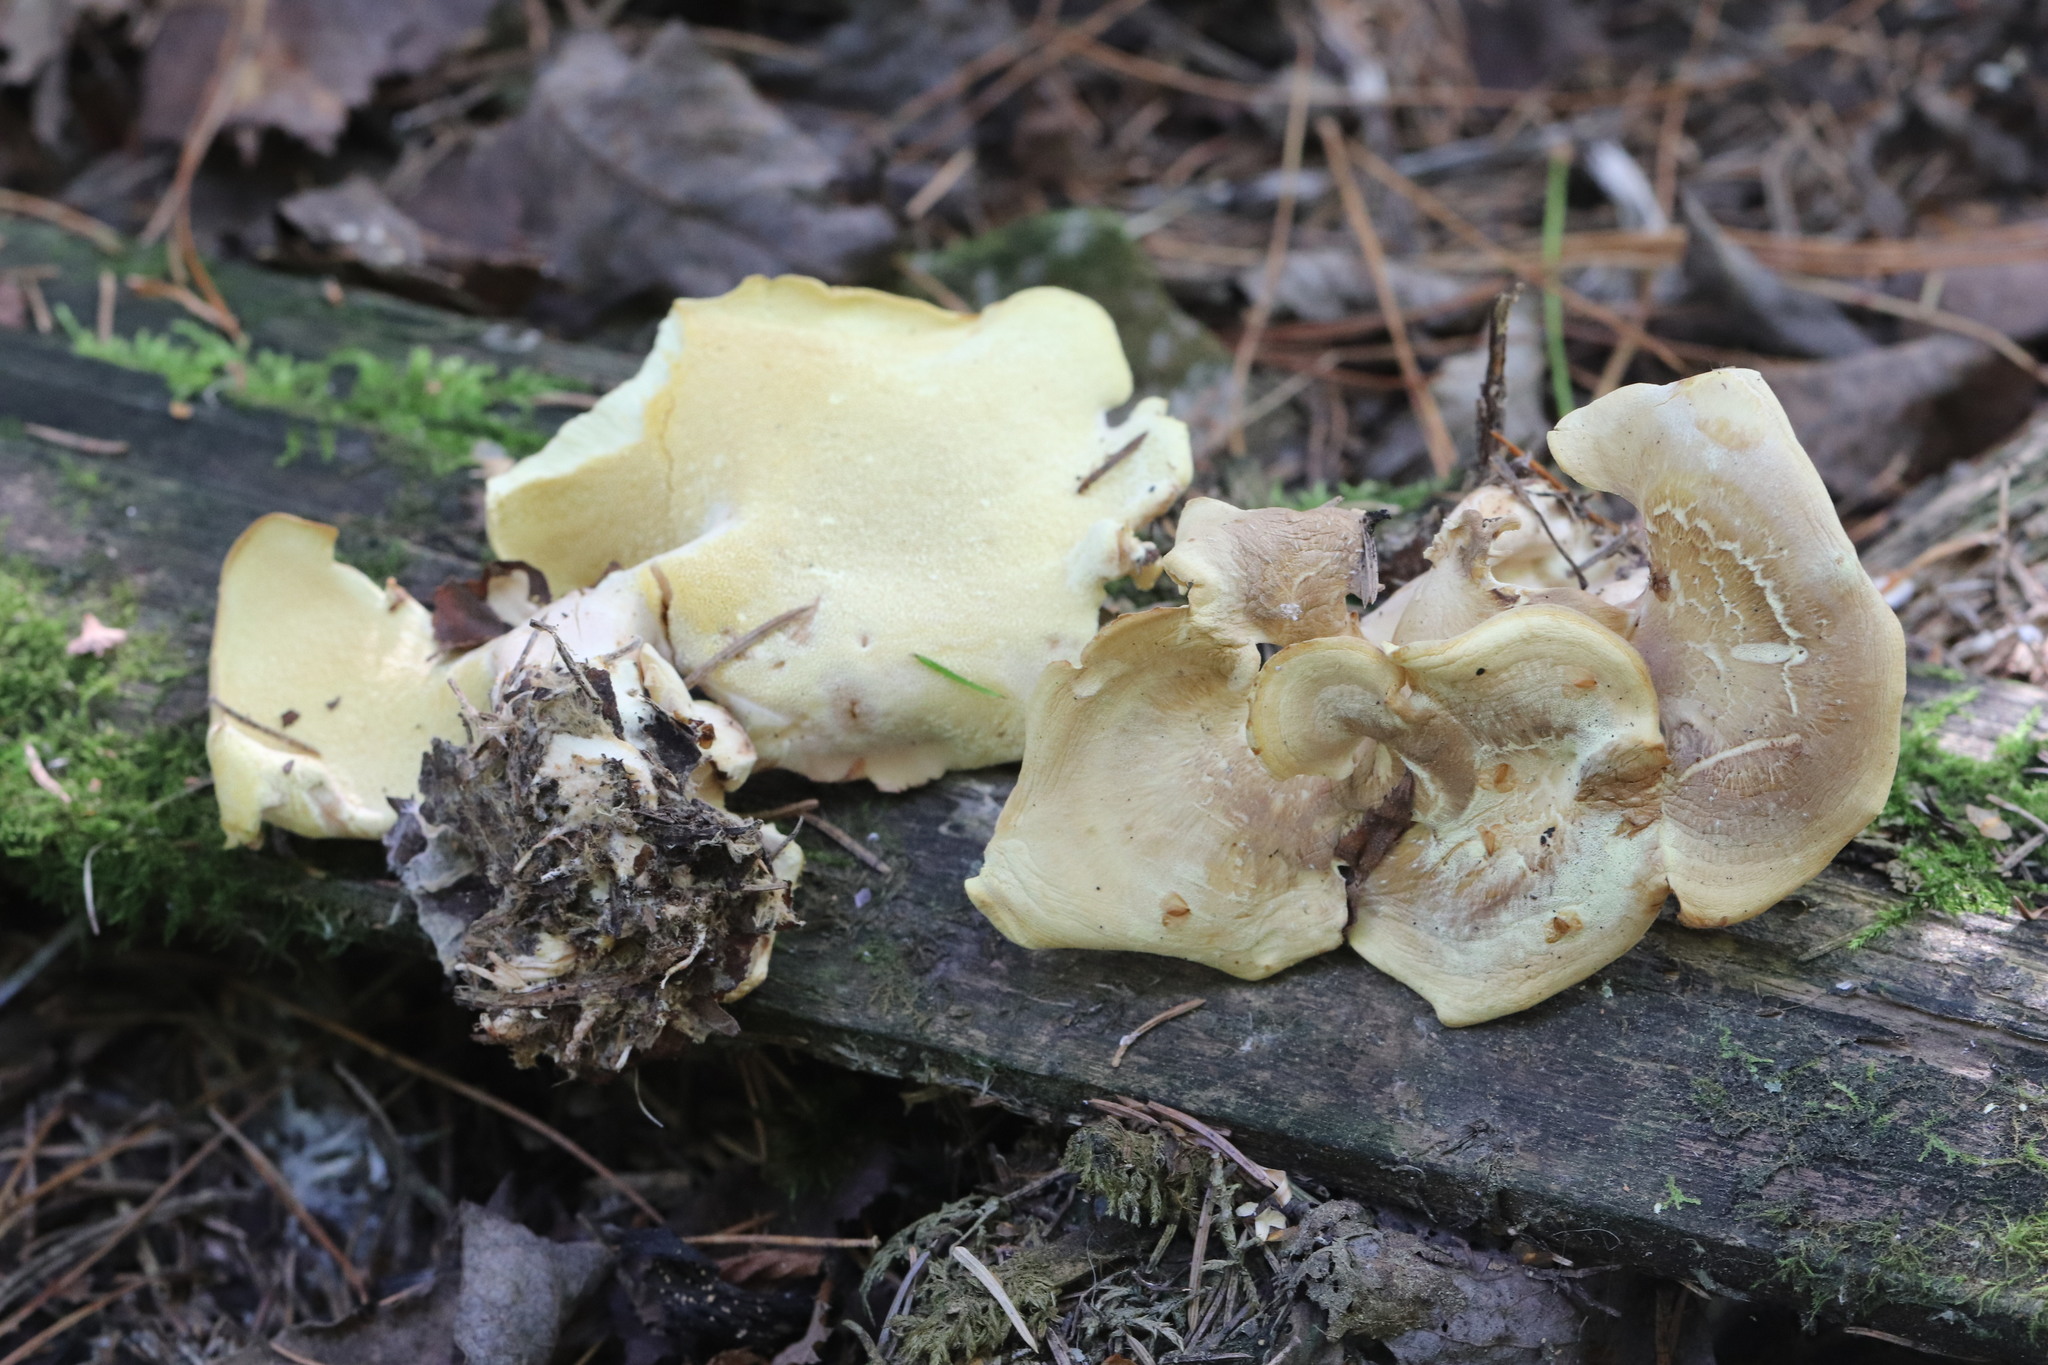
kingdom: Fungi
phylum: Basidiomycota
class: Agaricomycetes
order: Polyporales
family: Steccherinaceae
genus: Xanthoporus
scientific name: Xanthoporus syringae
